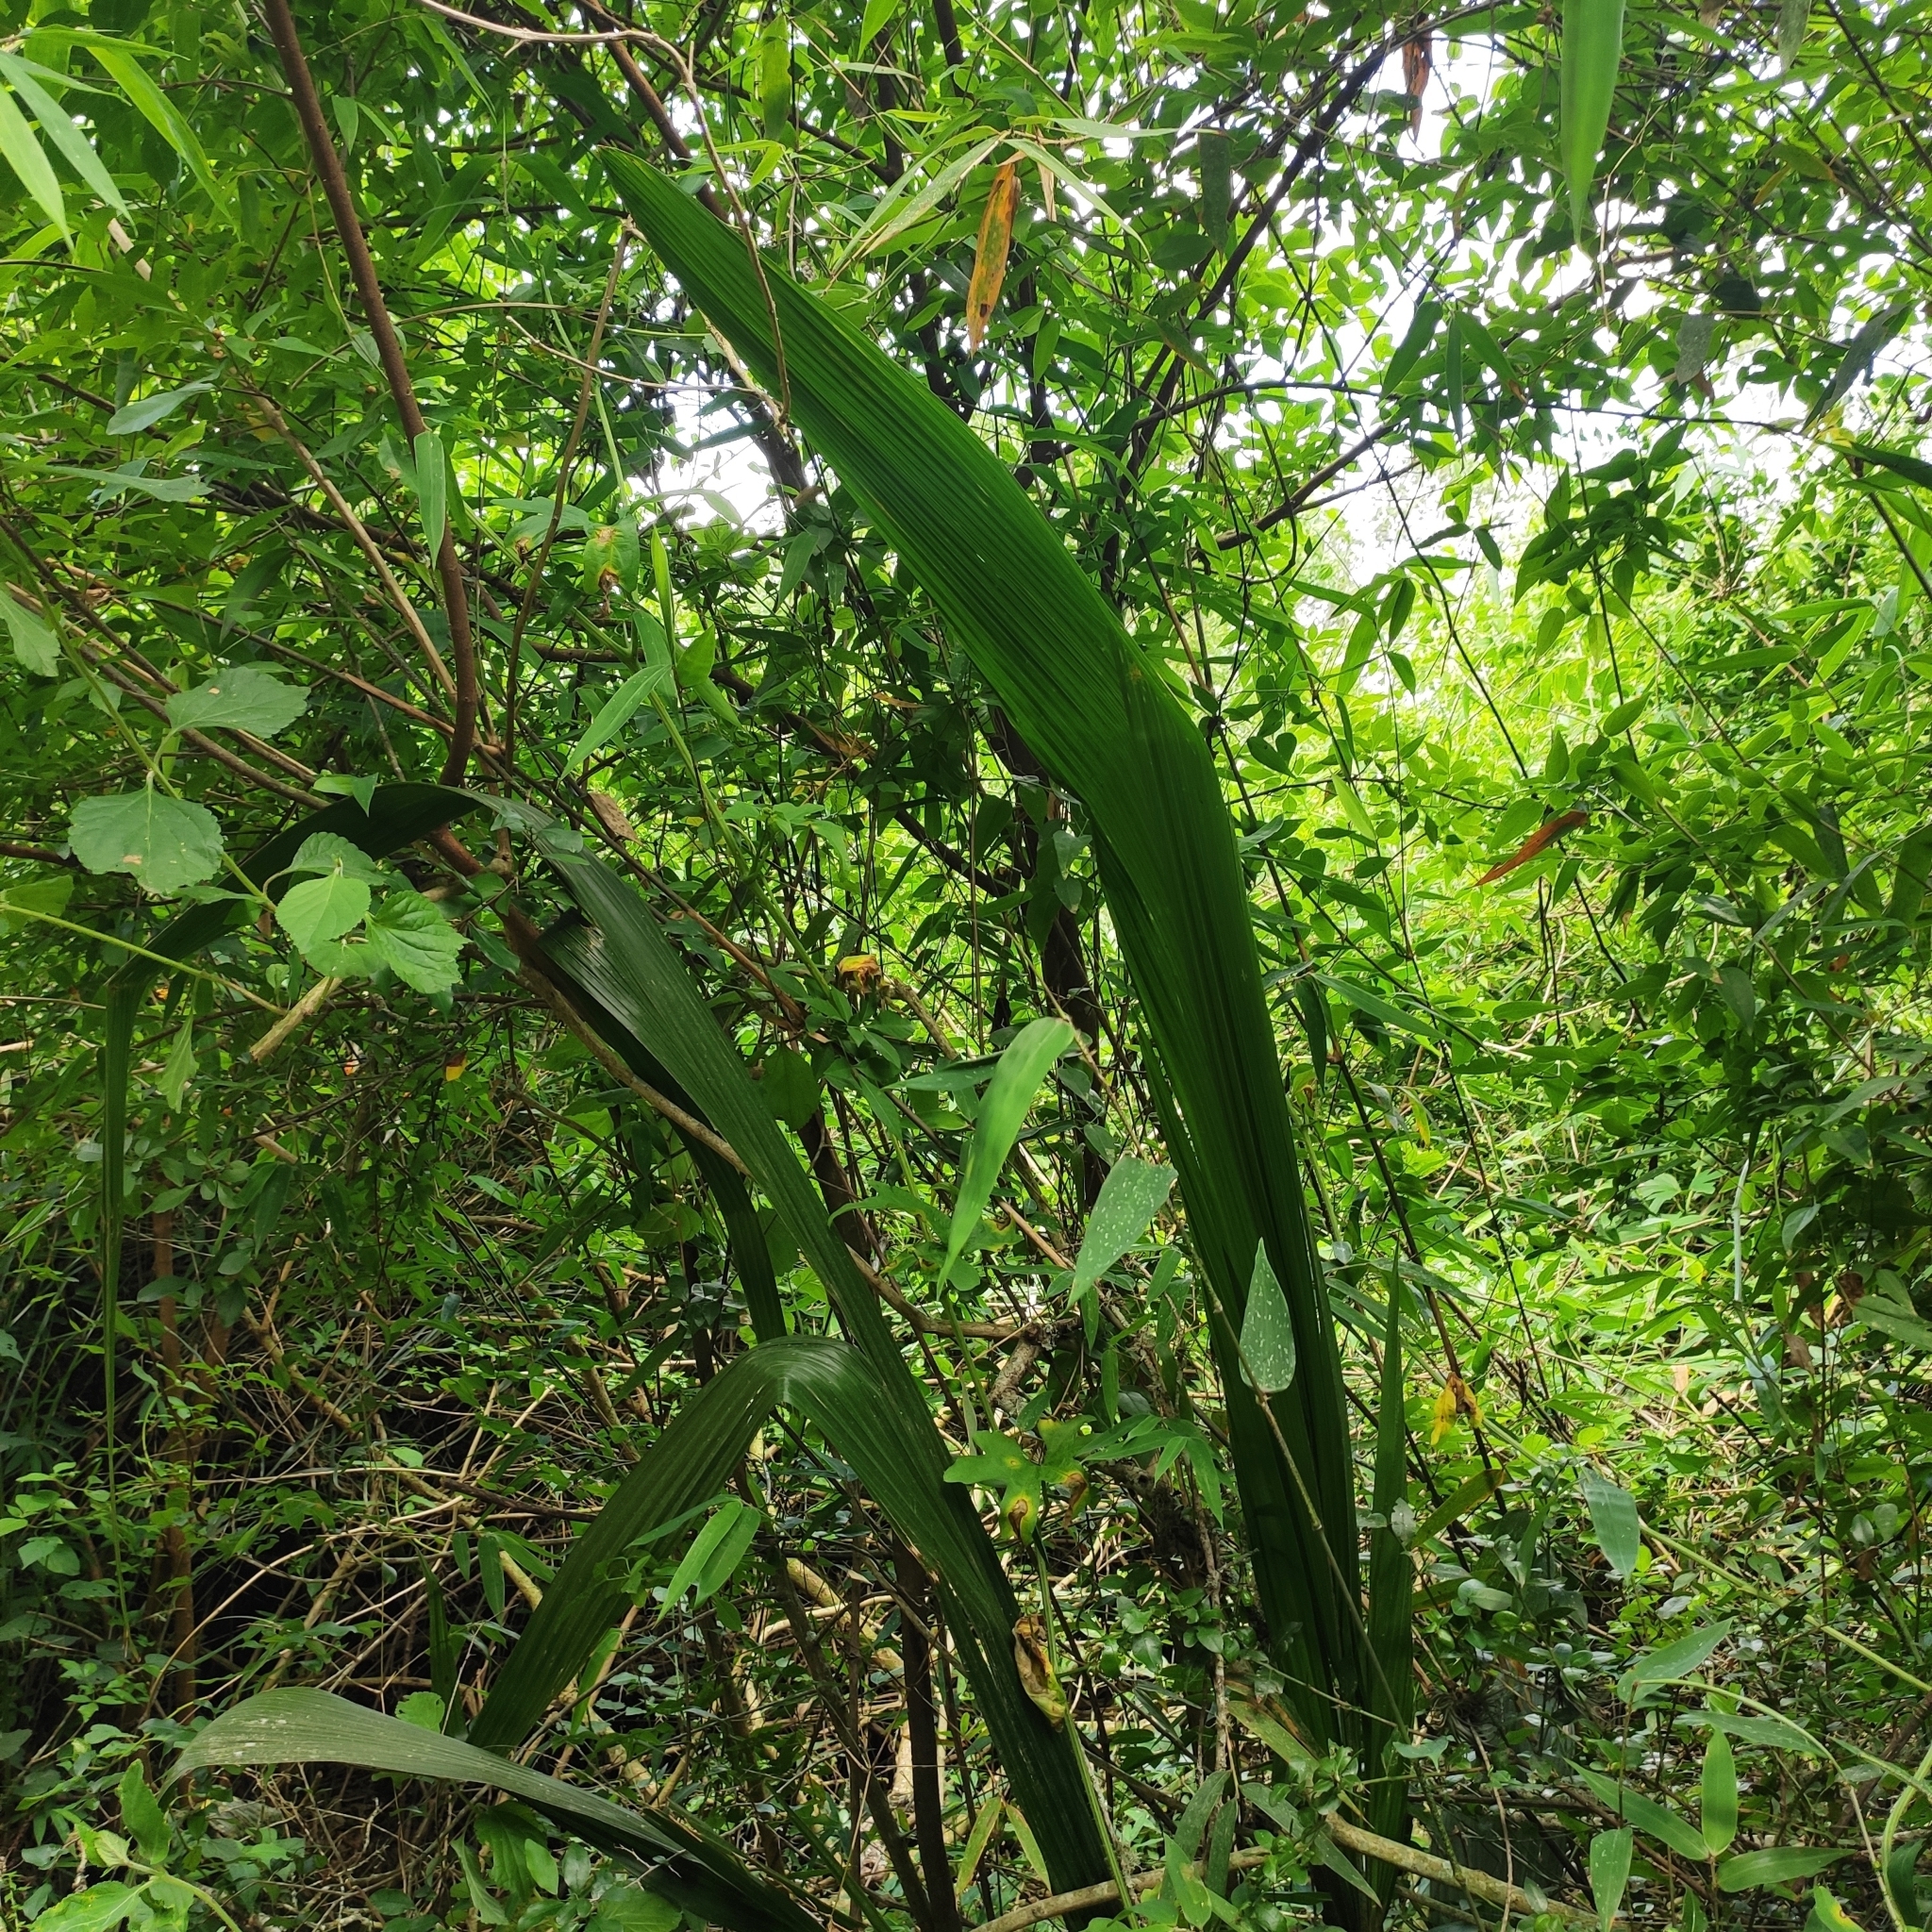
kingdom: Plantae
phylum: Tracheophyta
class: Liliopsida
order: Arecales
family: Arecaceae
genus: Syagrus
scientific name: Syagrus romanzoffiana
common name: Queen palm
